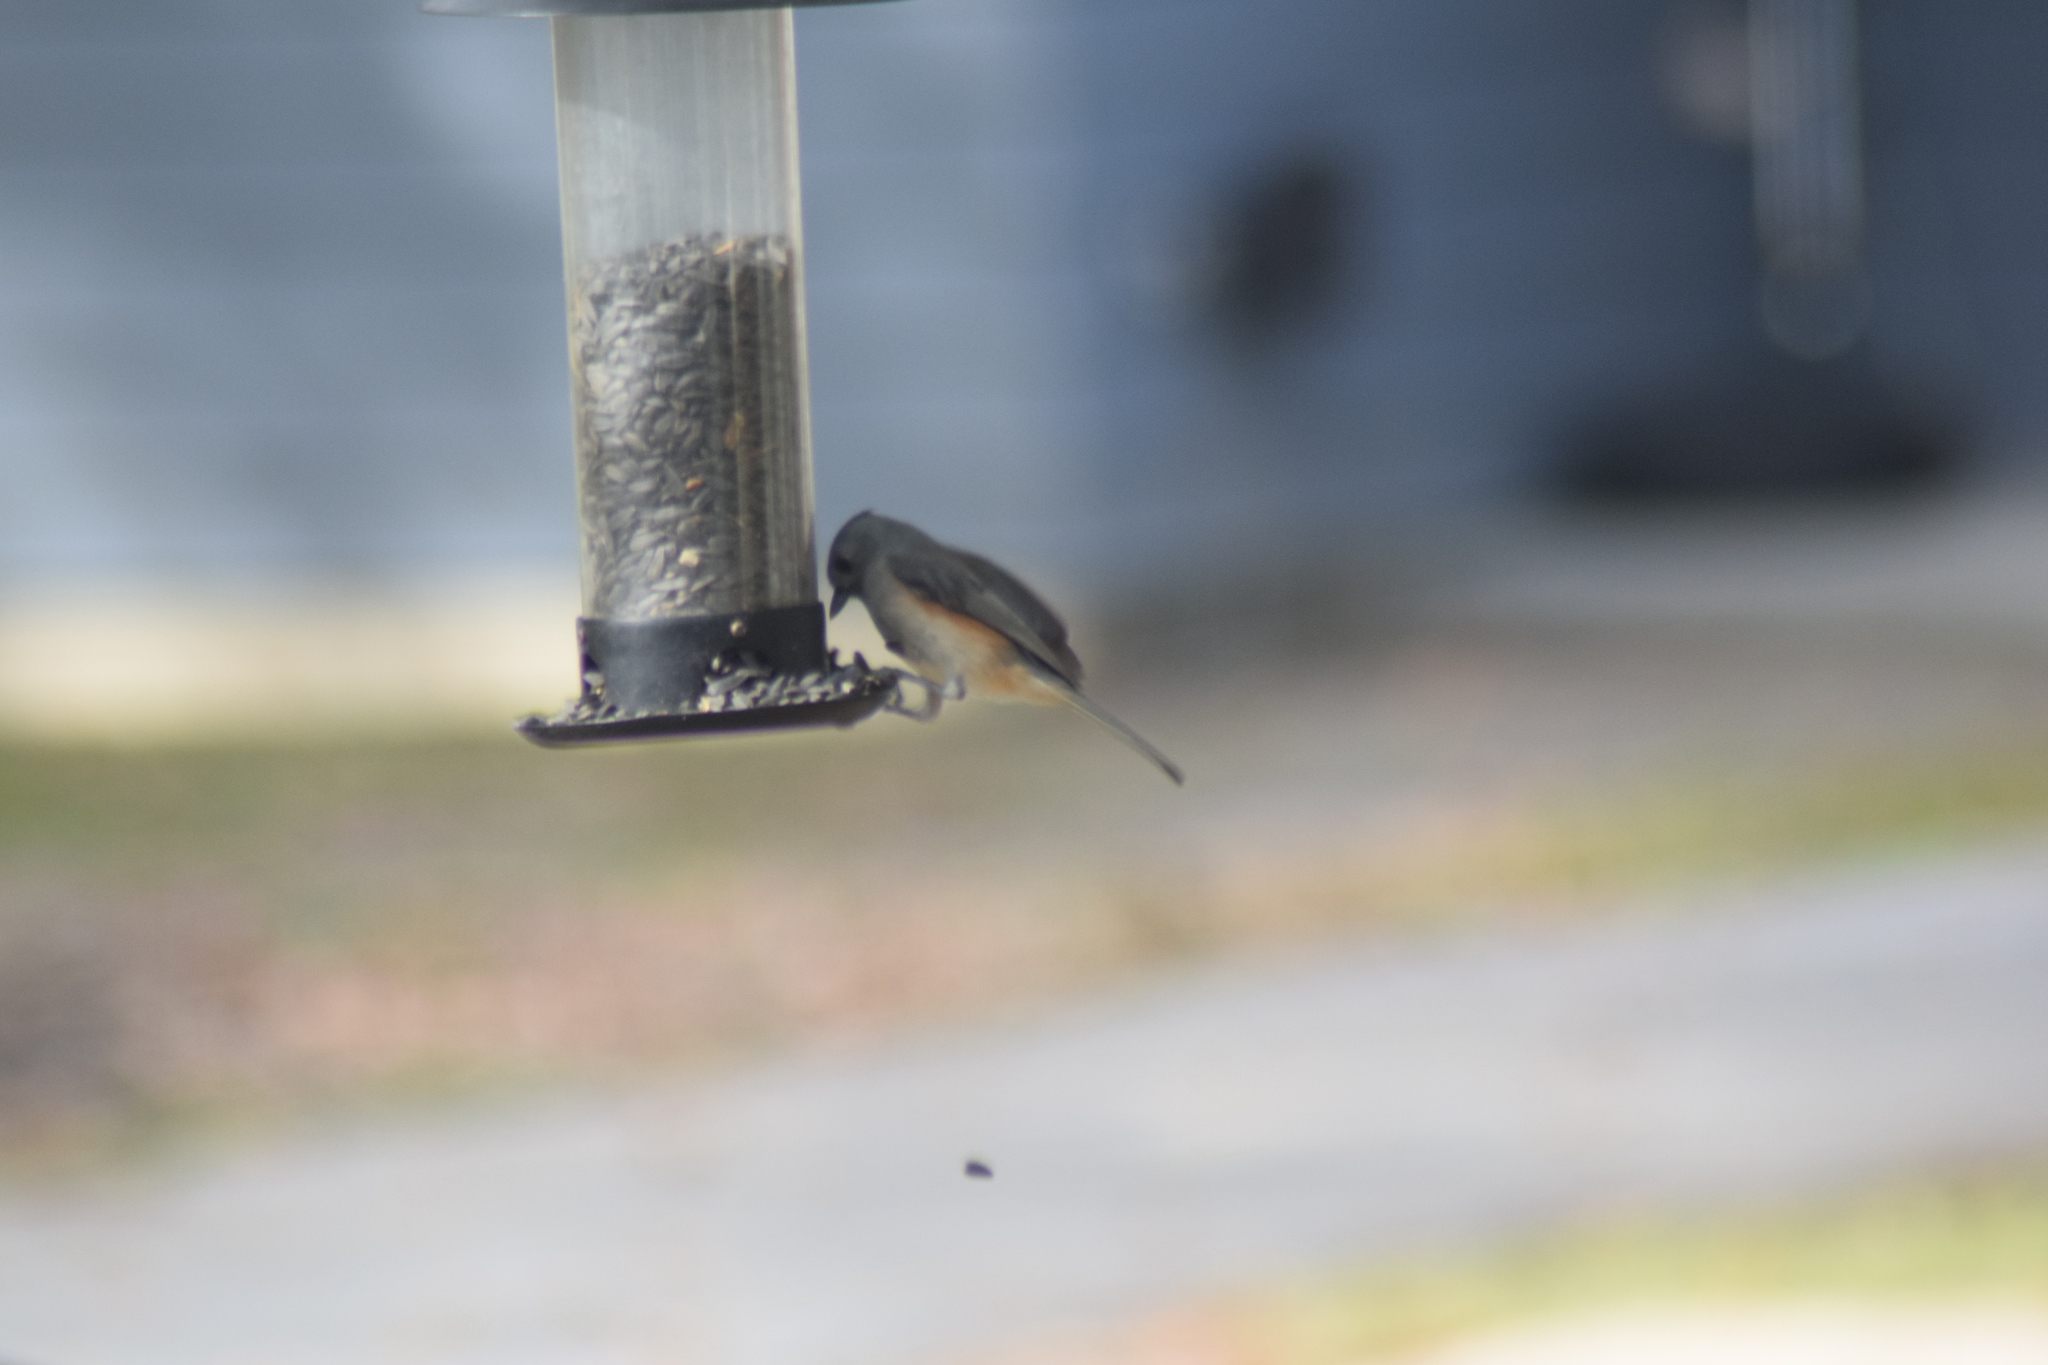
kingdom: Animalia
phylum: Chordata
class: Aves
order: Passeriformes
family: Paridae
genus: Baeolophus
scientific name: Baeolophus bicolor
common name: Tufted titmouse
